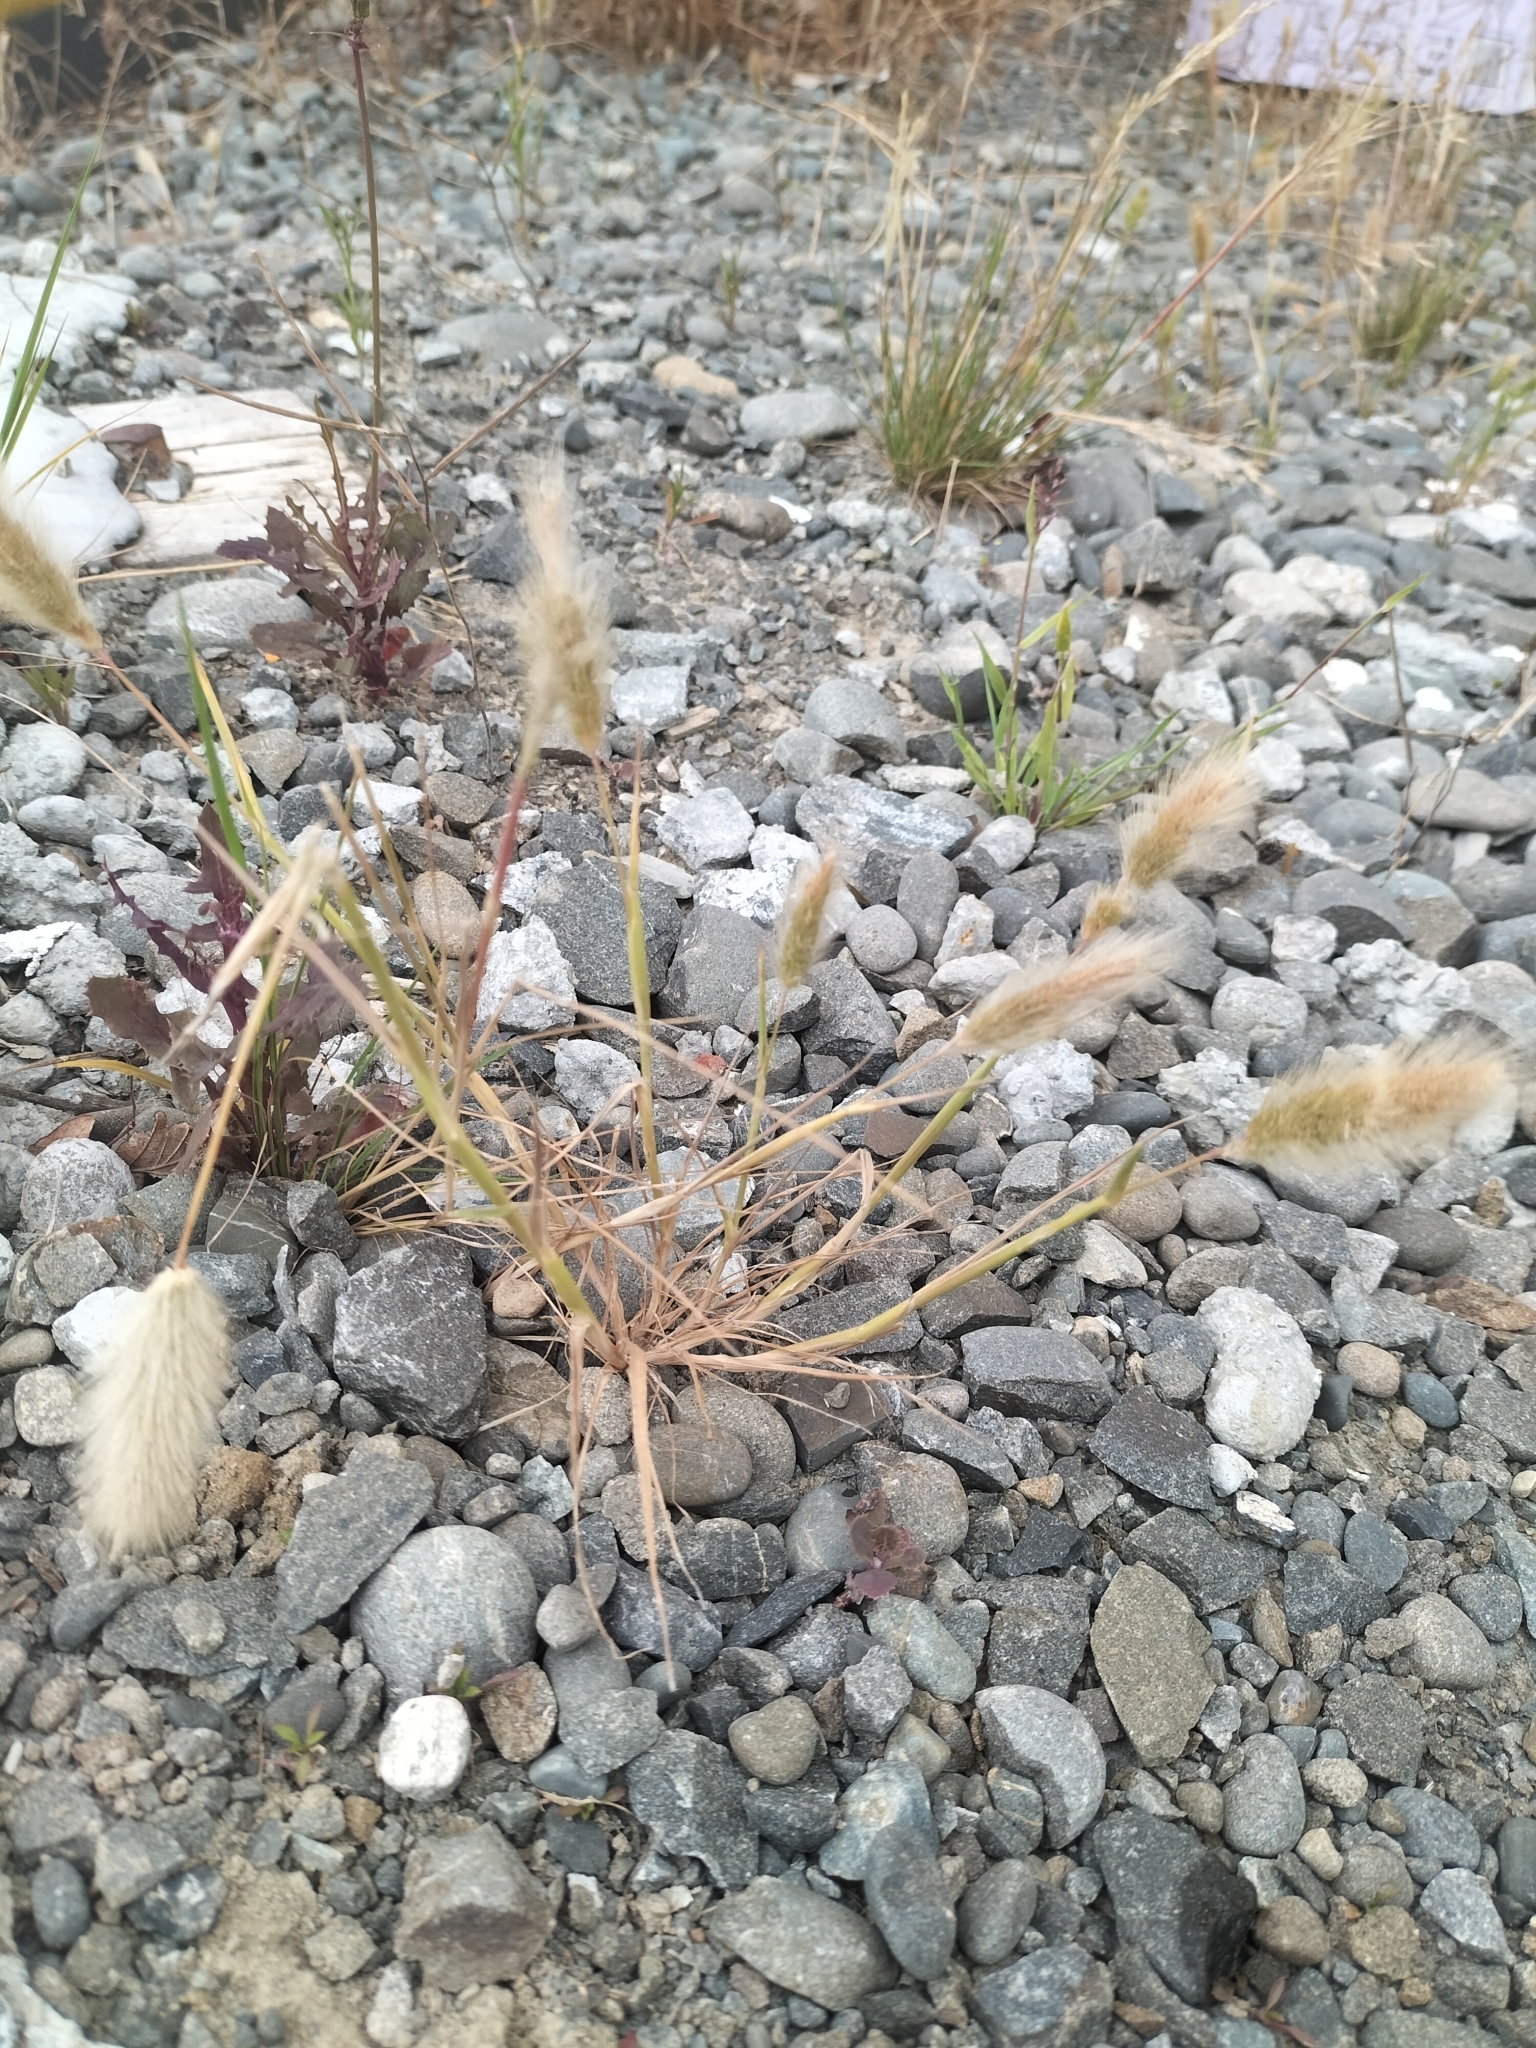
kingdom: Plantae
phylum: Tracheophyta
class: Liliopsida
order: Poales
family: Poaceae
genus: Lagurus
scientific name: Lagurus ovatus
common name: Hare's-tail
